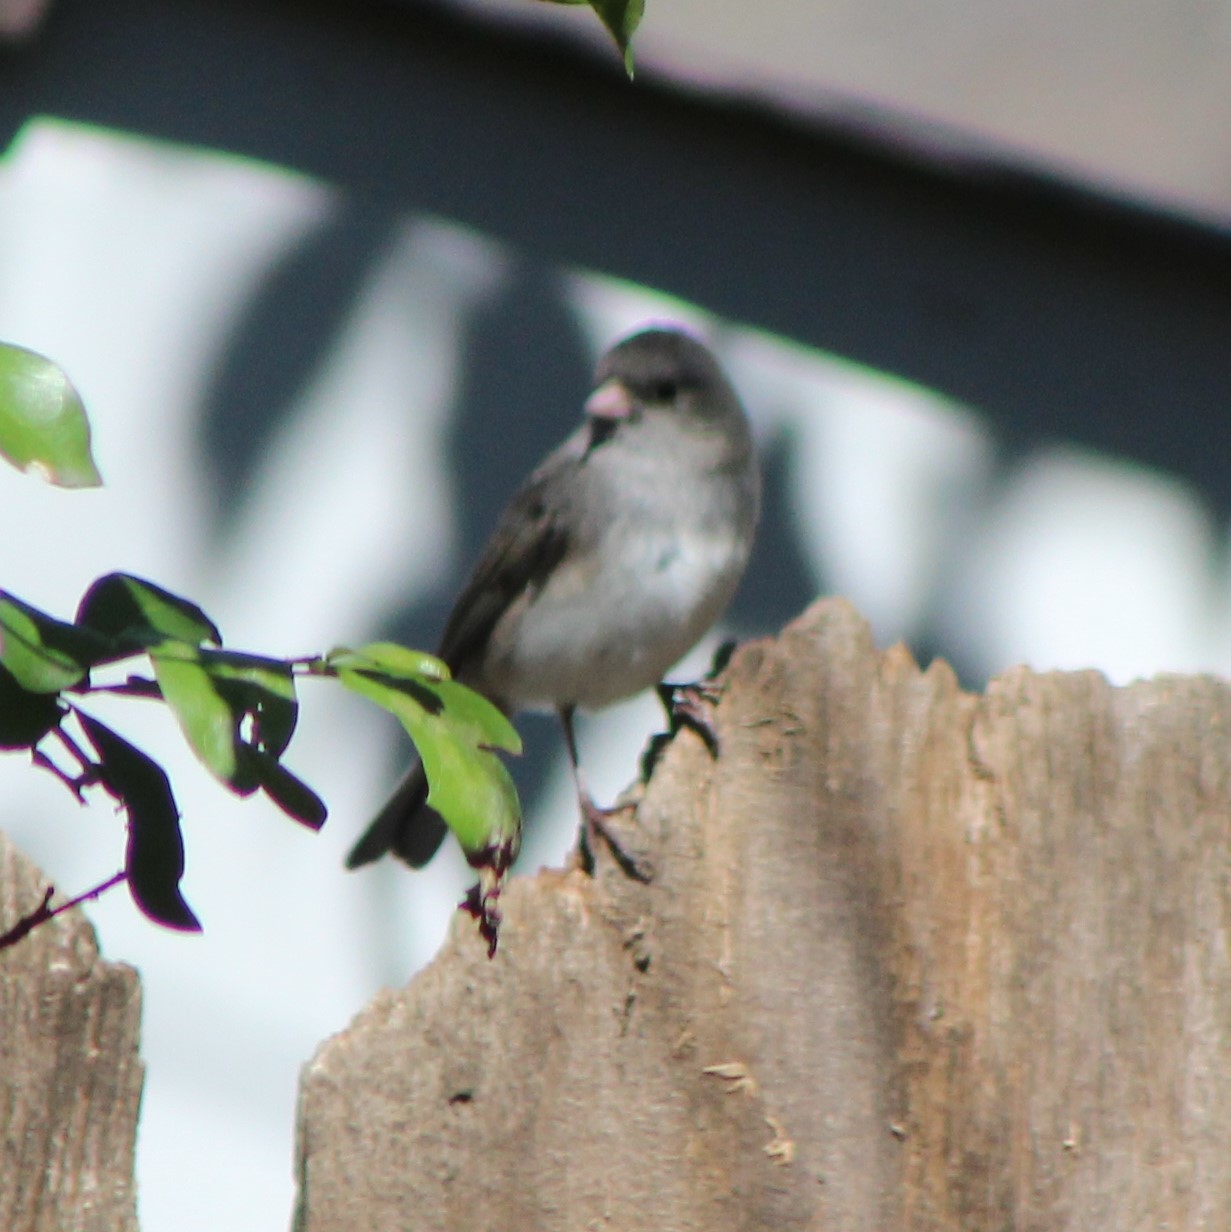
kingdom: Animalia
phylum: Chordata
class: Aves
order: Passeriformes
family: Passerellidae
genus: Junco
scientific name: Junco hyemalis
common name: Dark-eyed junco
